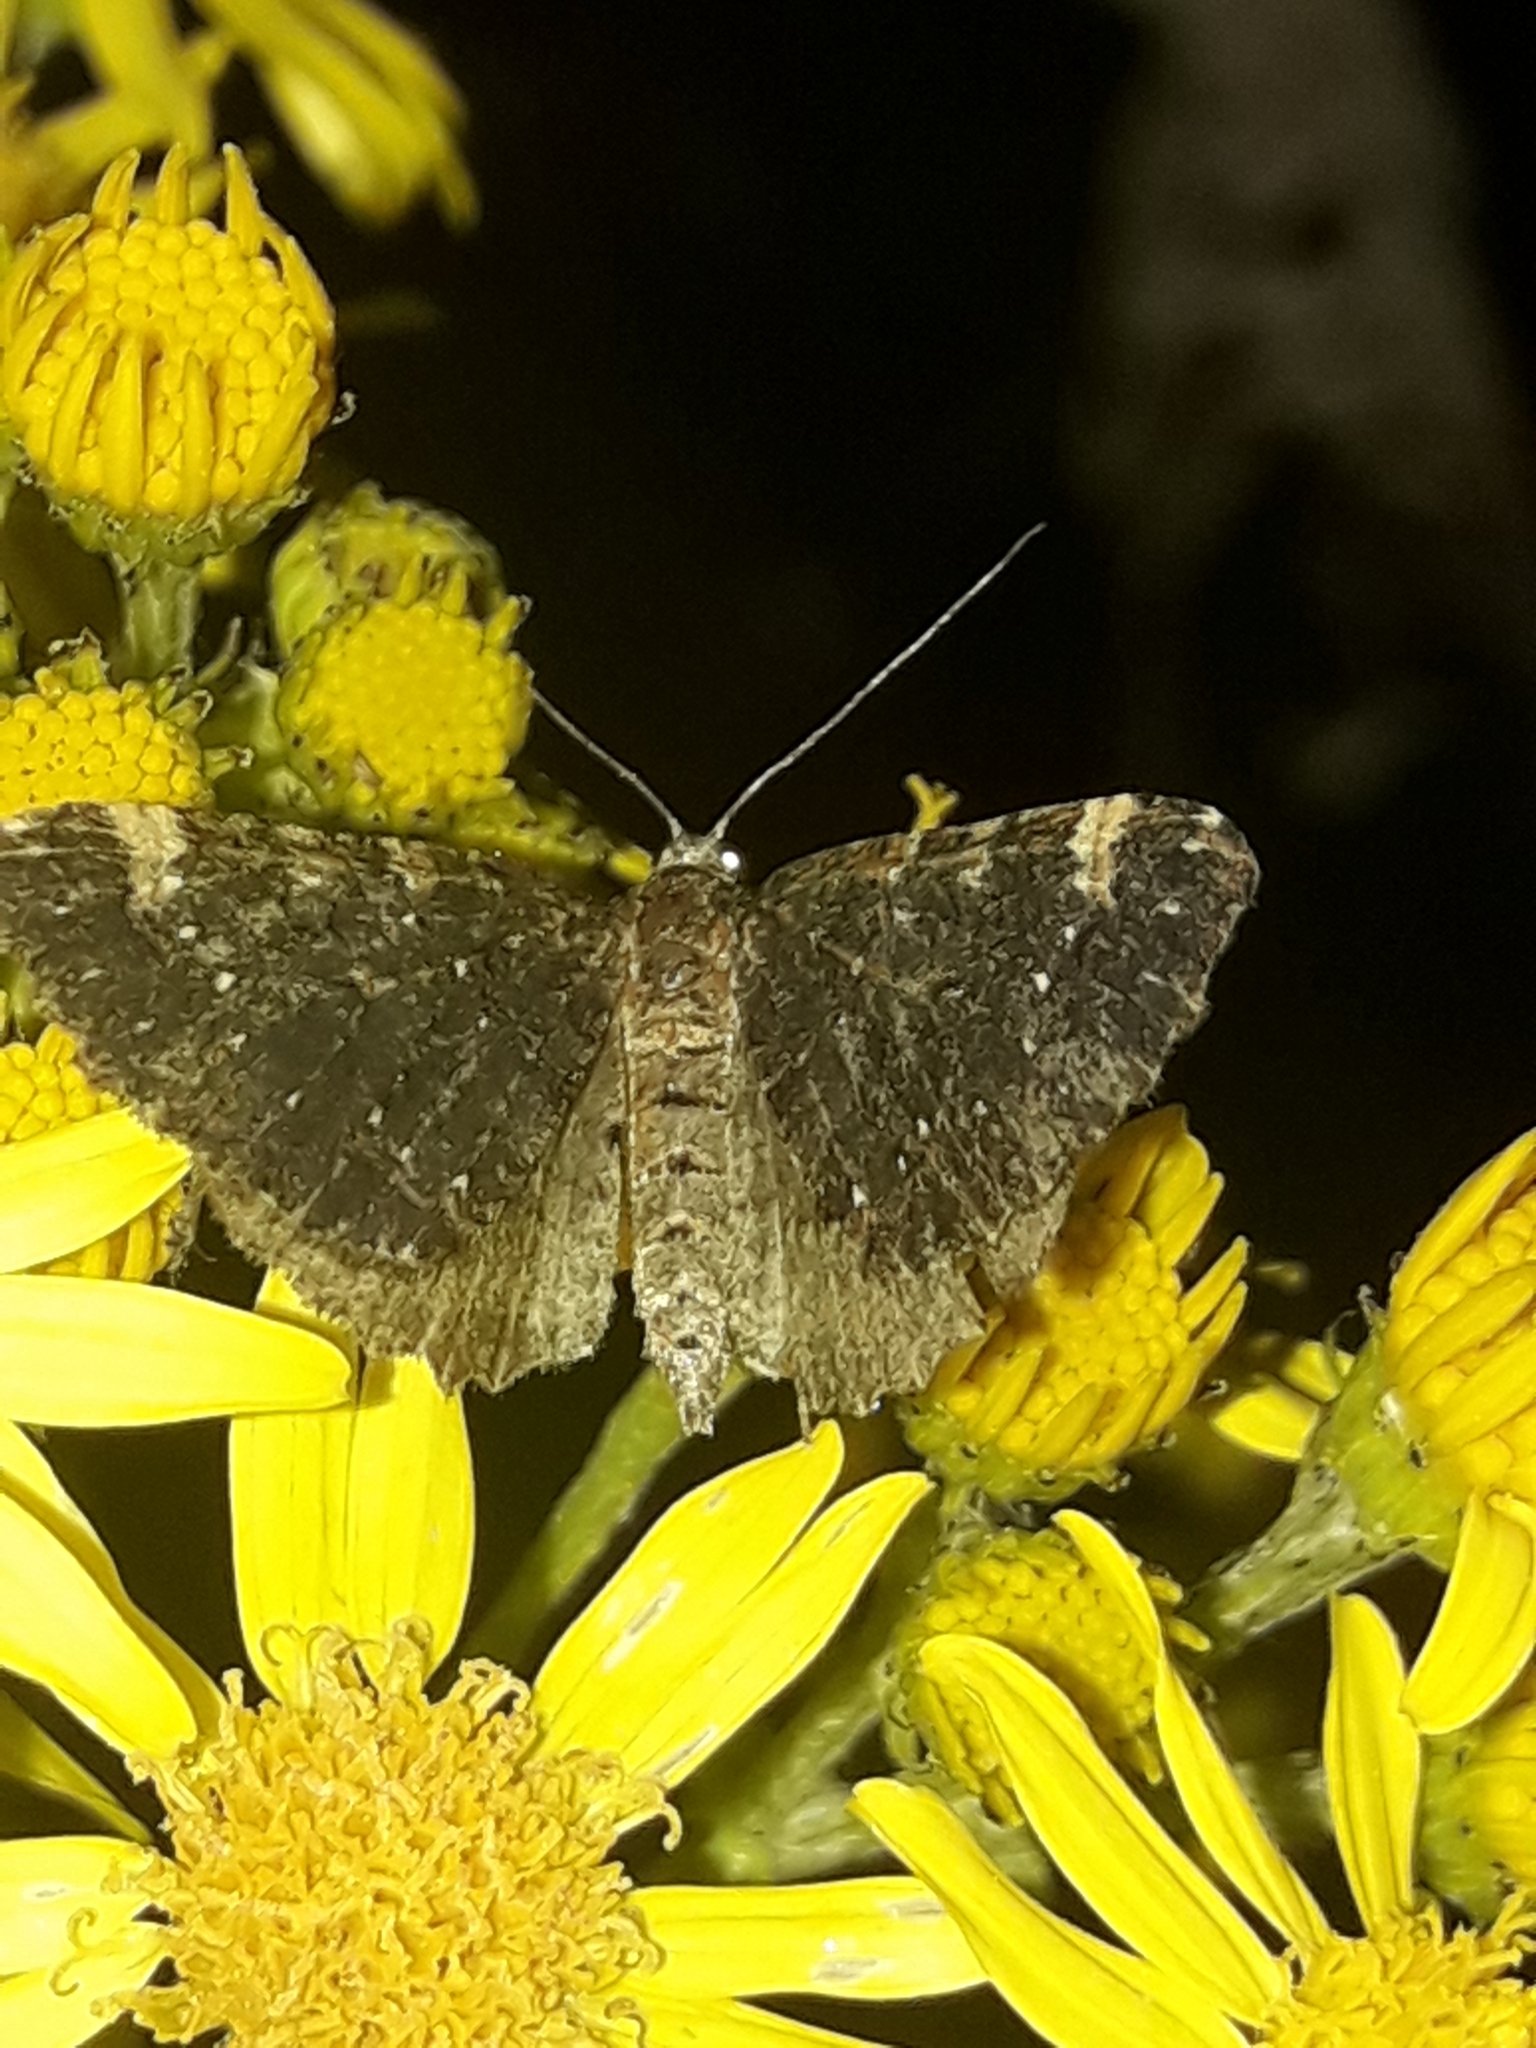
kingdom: Animalia
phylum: Arthropoda
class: Insecta
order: Lepidoptera
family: Geometridae
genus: Hydriomena
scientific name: Hydriomena arida
